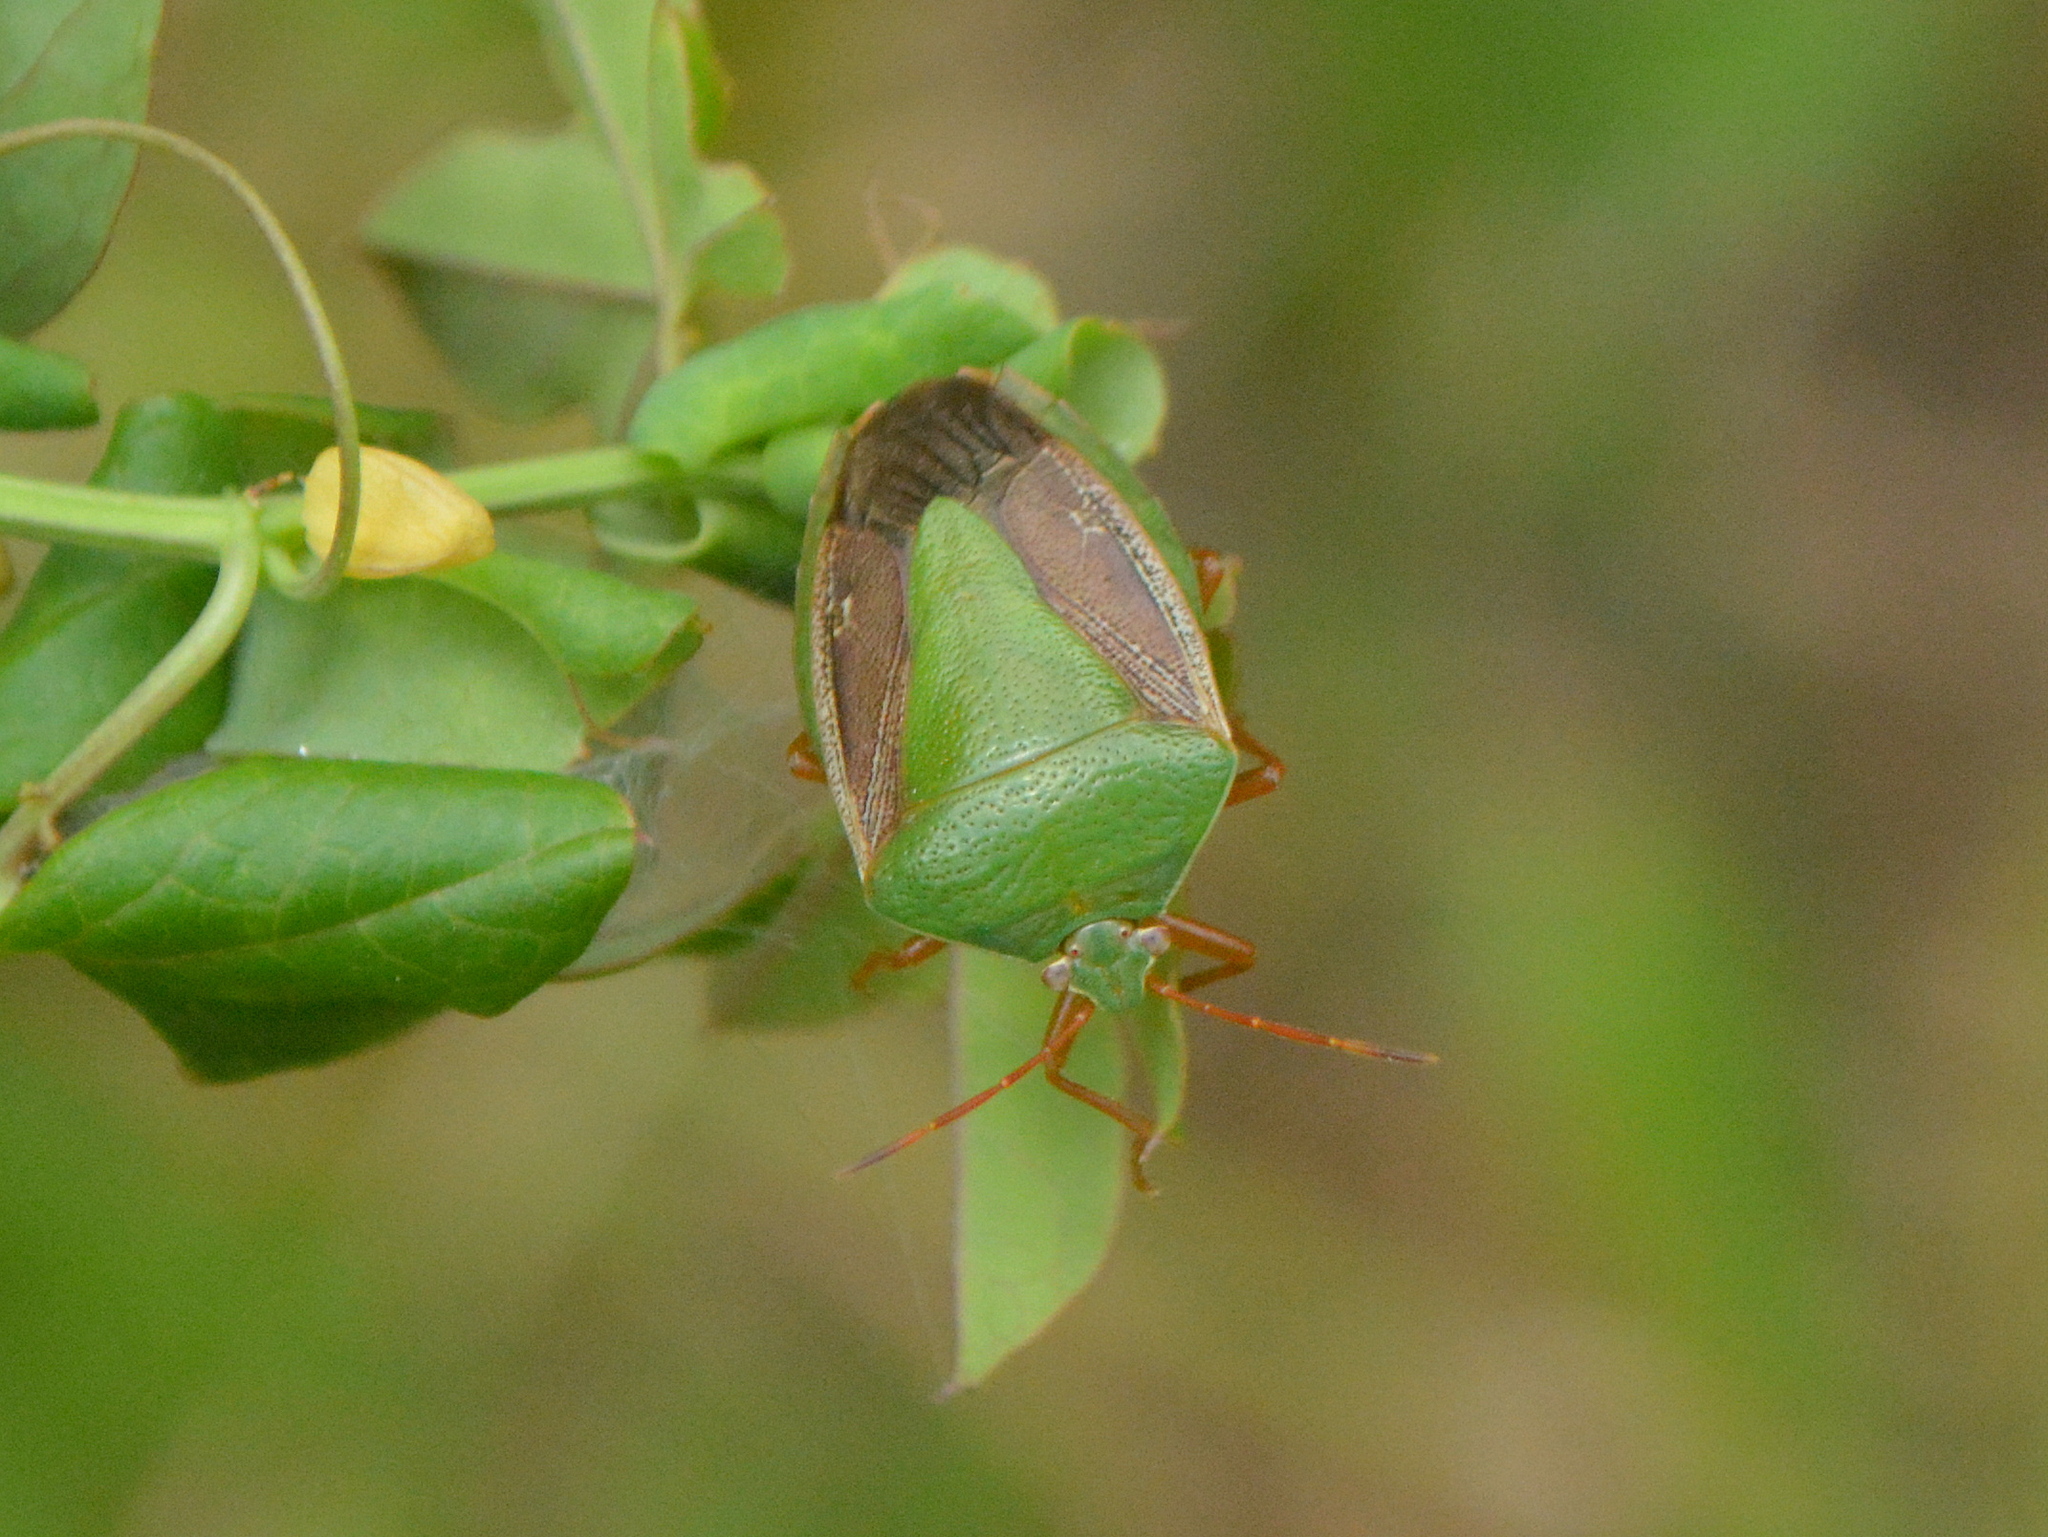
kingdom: Animalia
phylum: Arthropoda
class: Insecta
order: Hemiptera
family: Pentatomidae
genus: Edessa
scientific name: Edessa meditabunda
